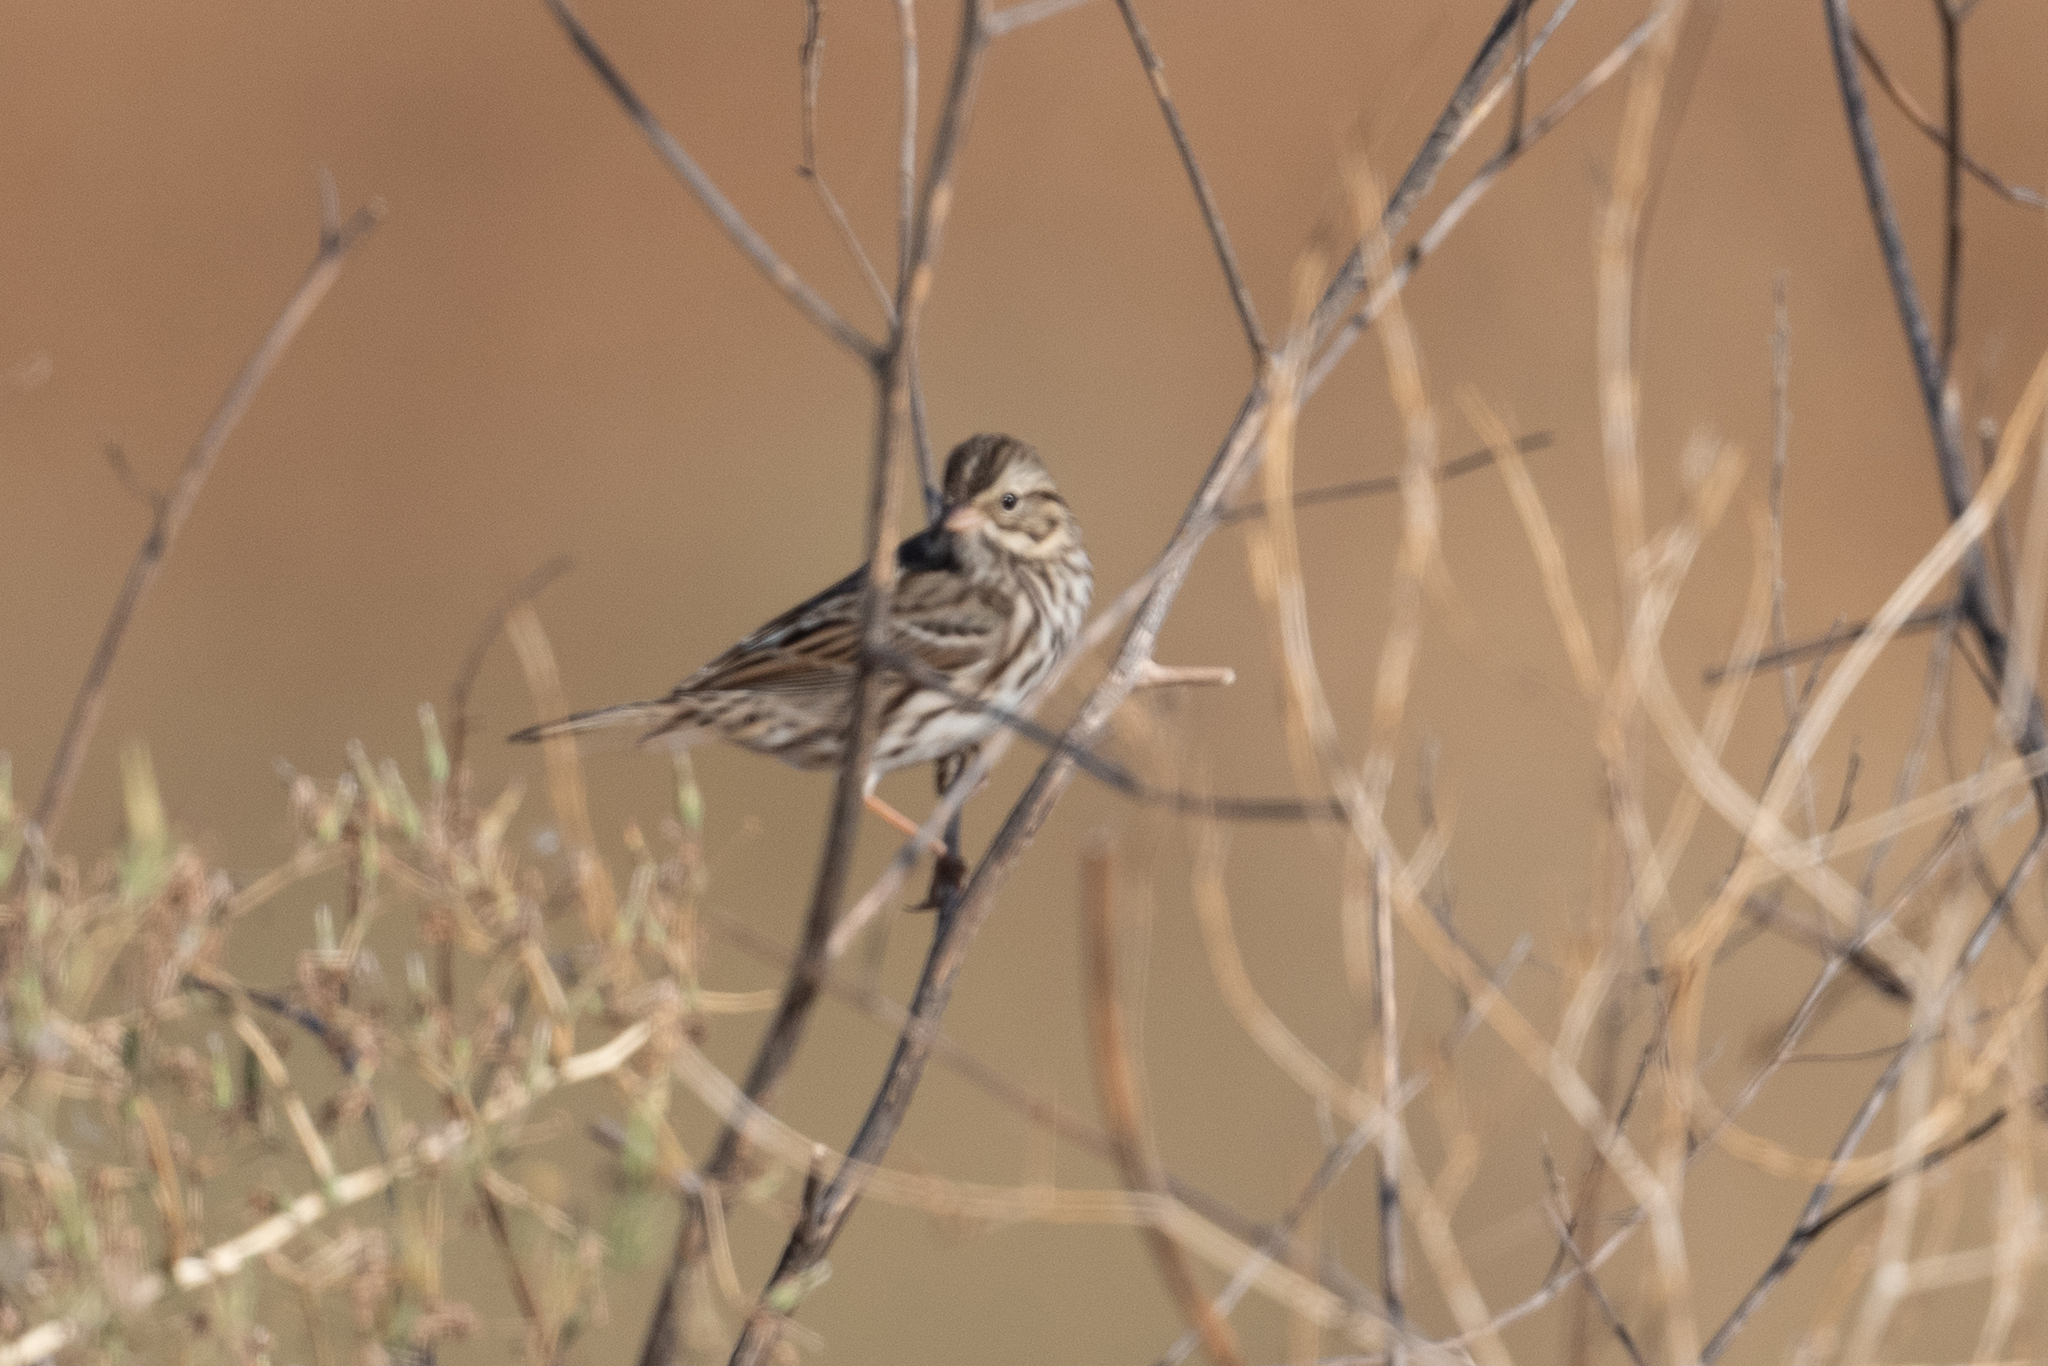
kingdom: Animalia
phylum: Chordata
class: Aves
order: Passeriformes
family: Passerellidae
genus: Passerculus
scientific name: Passerculus sandwichensis
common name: Savannah sparrow
